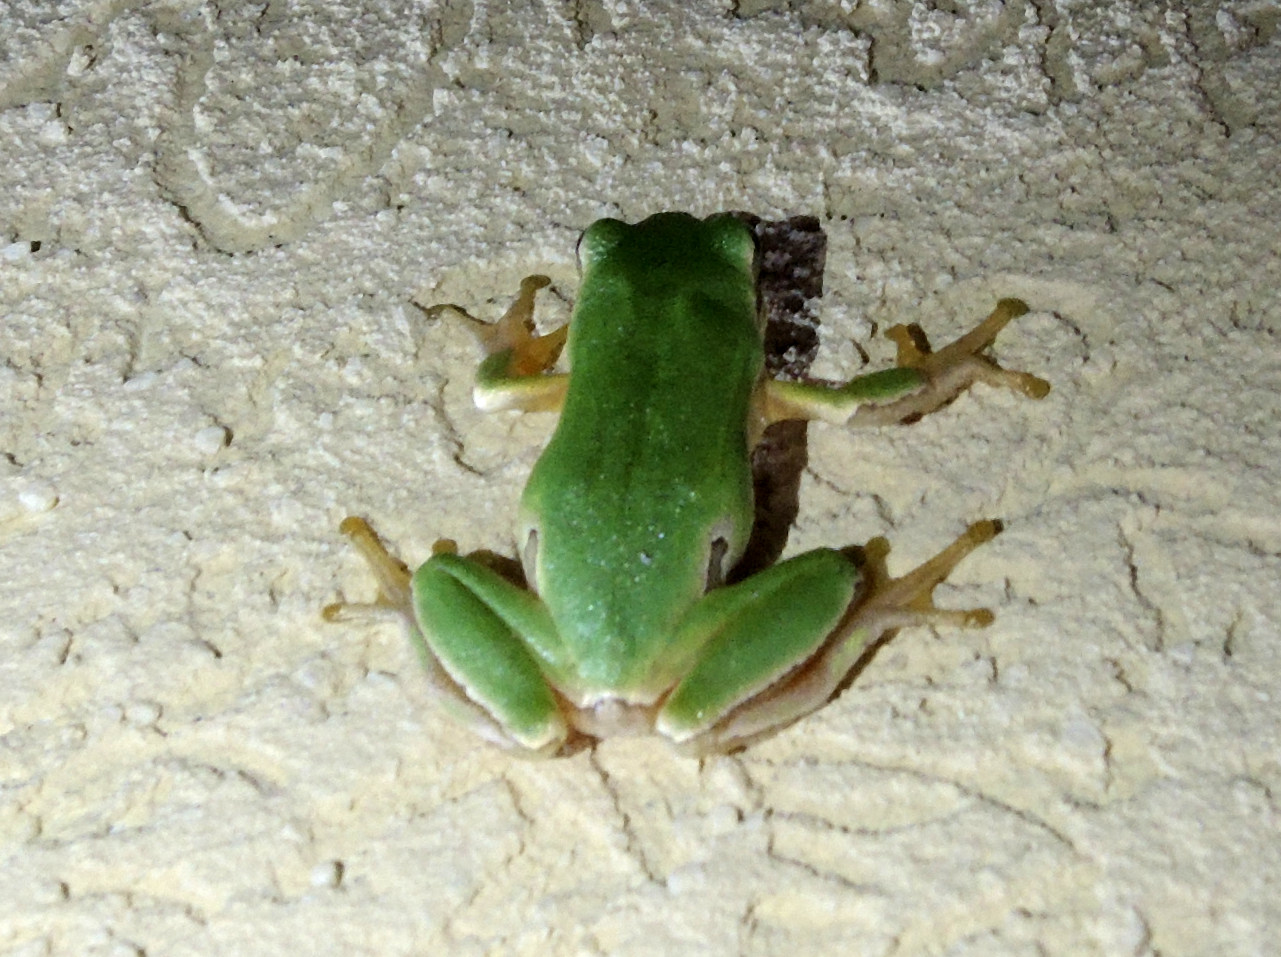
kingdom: Animalia
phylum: Chordata
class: Amphibia
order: Anura
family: Hylidae
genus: Hyla
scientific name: Hyla orientalis
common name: Caucasian treefrog
